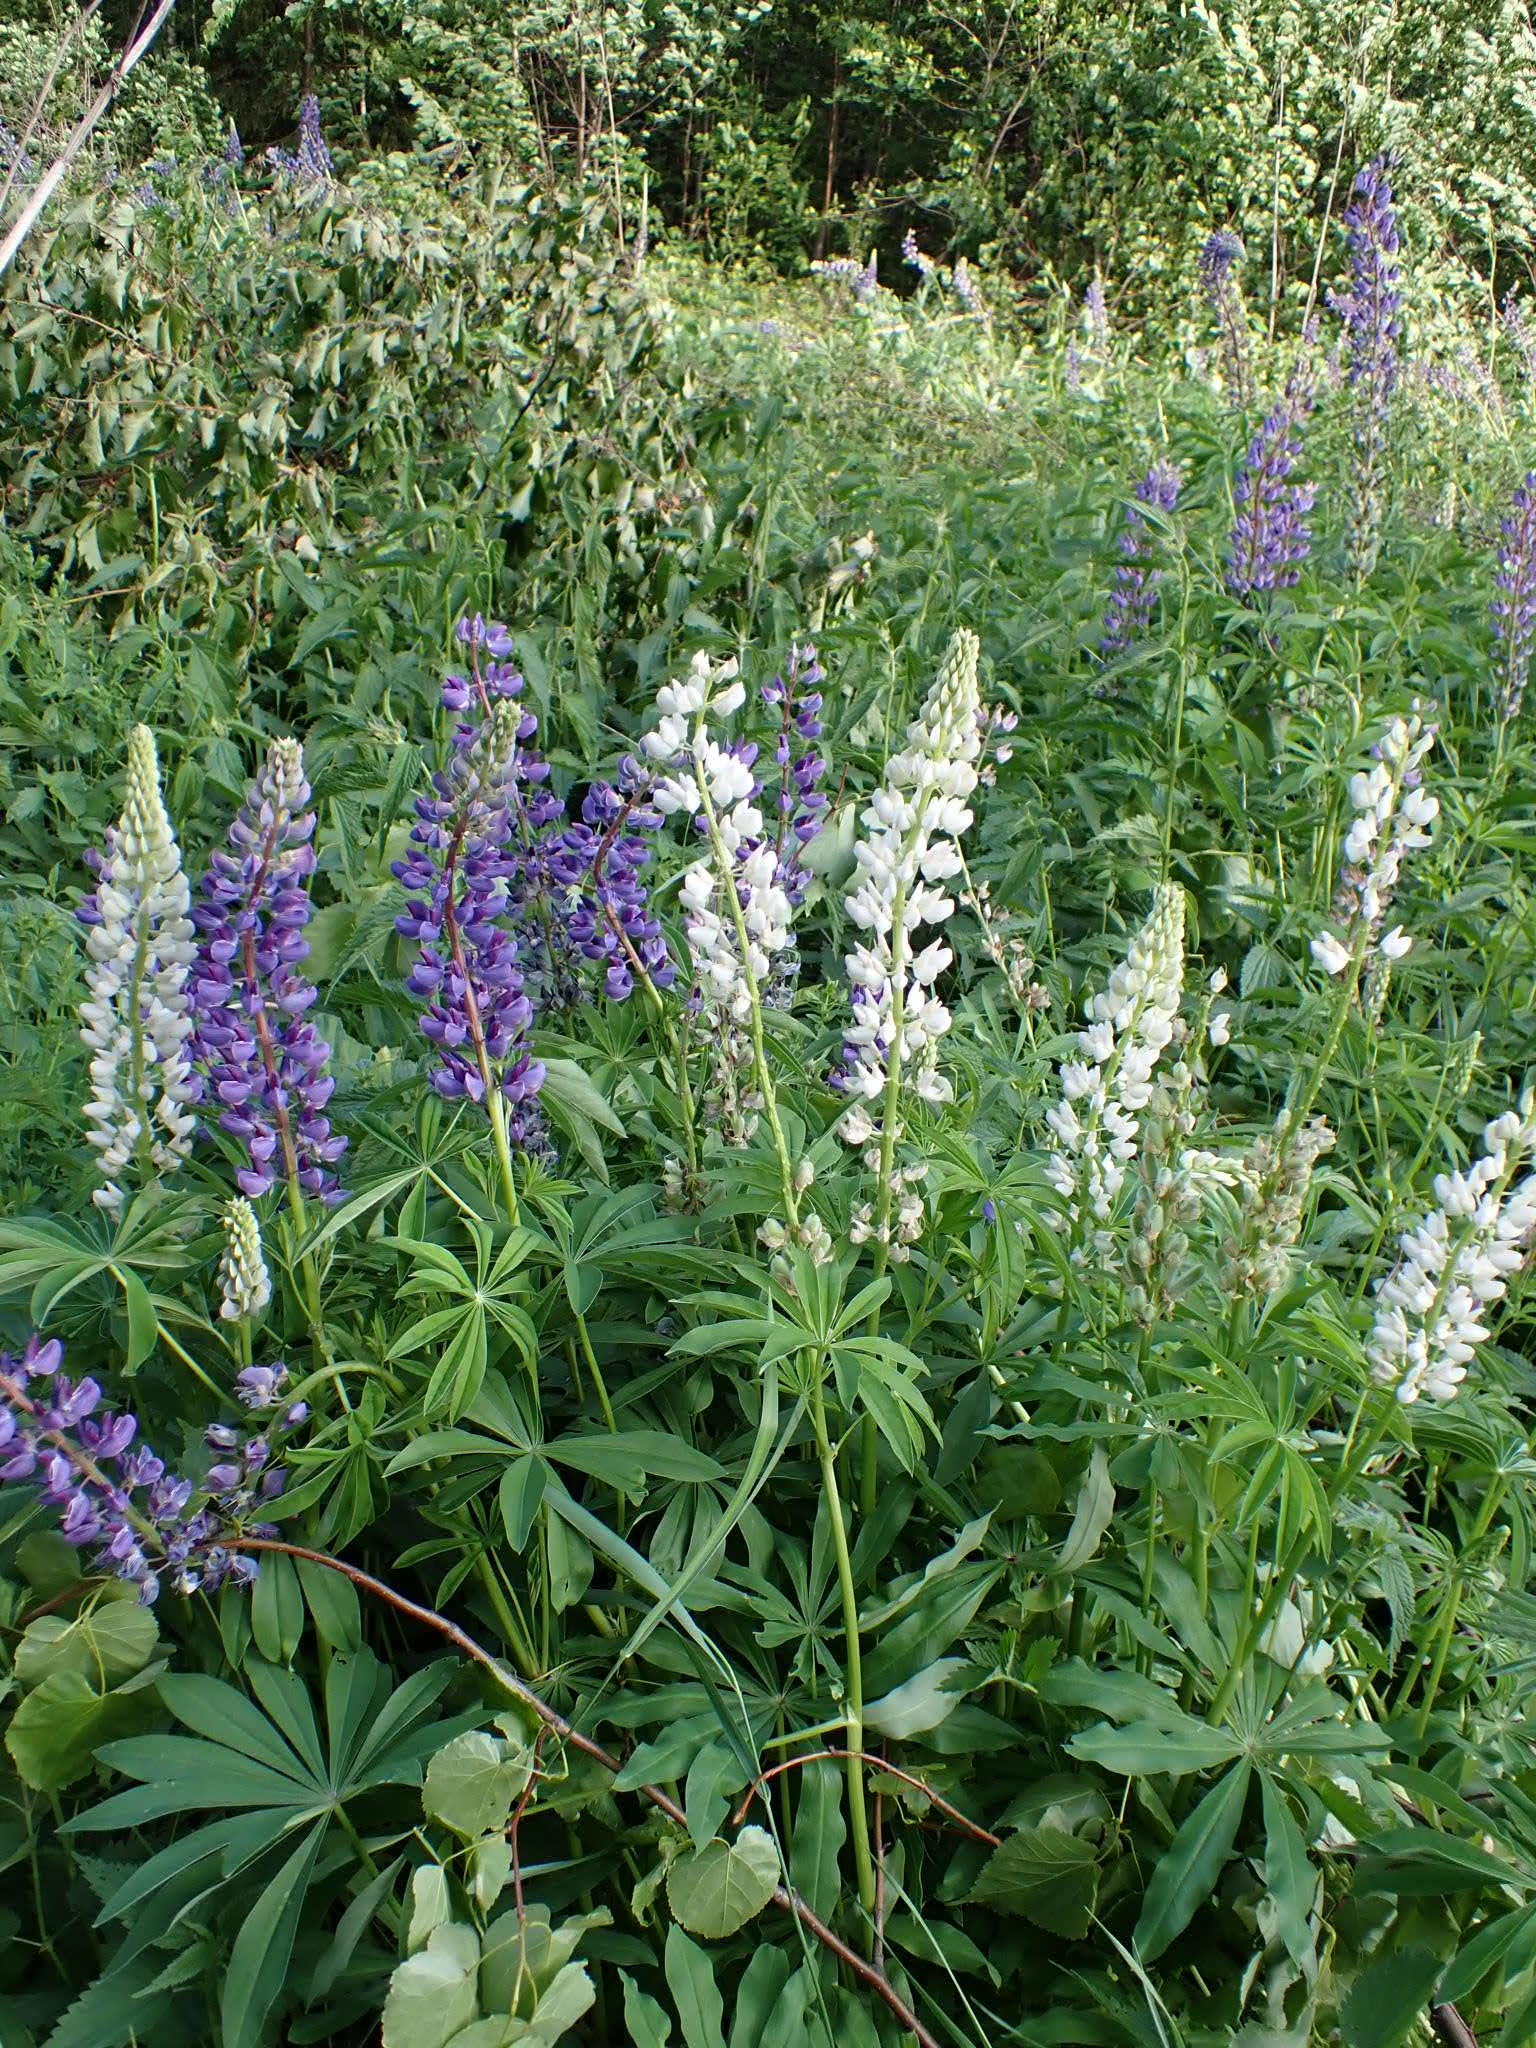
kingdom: Plantae
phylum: Tracheophyta
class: Magnoliopsida
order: Fabales
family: Fabaceae
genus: Lupinus
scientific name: Lupinus polyphyllus
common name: Garden lupin
